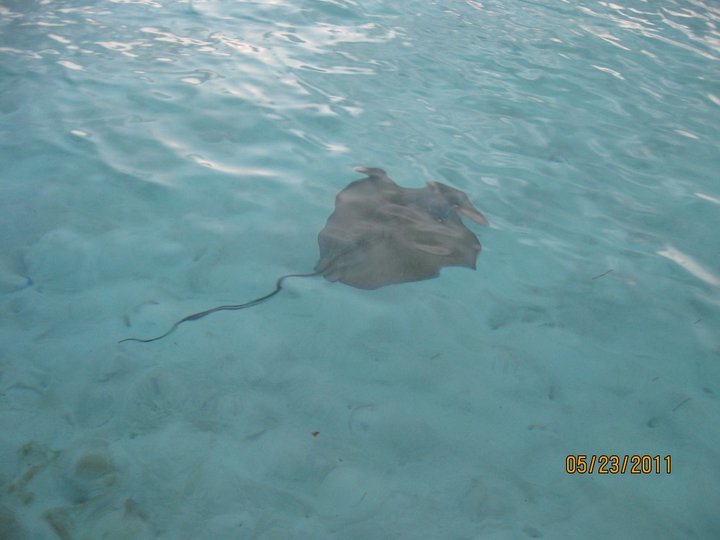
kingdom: Animalia
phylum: Chordata
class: Elasmobranchii
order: Myliobatiformes
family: Dasyatidae
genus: Hypanus
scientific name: Hypanus americanus
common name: Southern stingray
